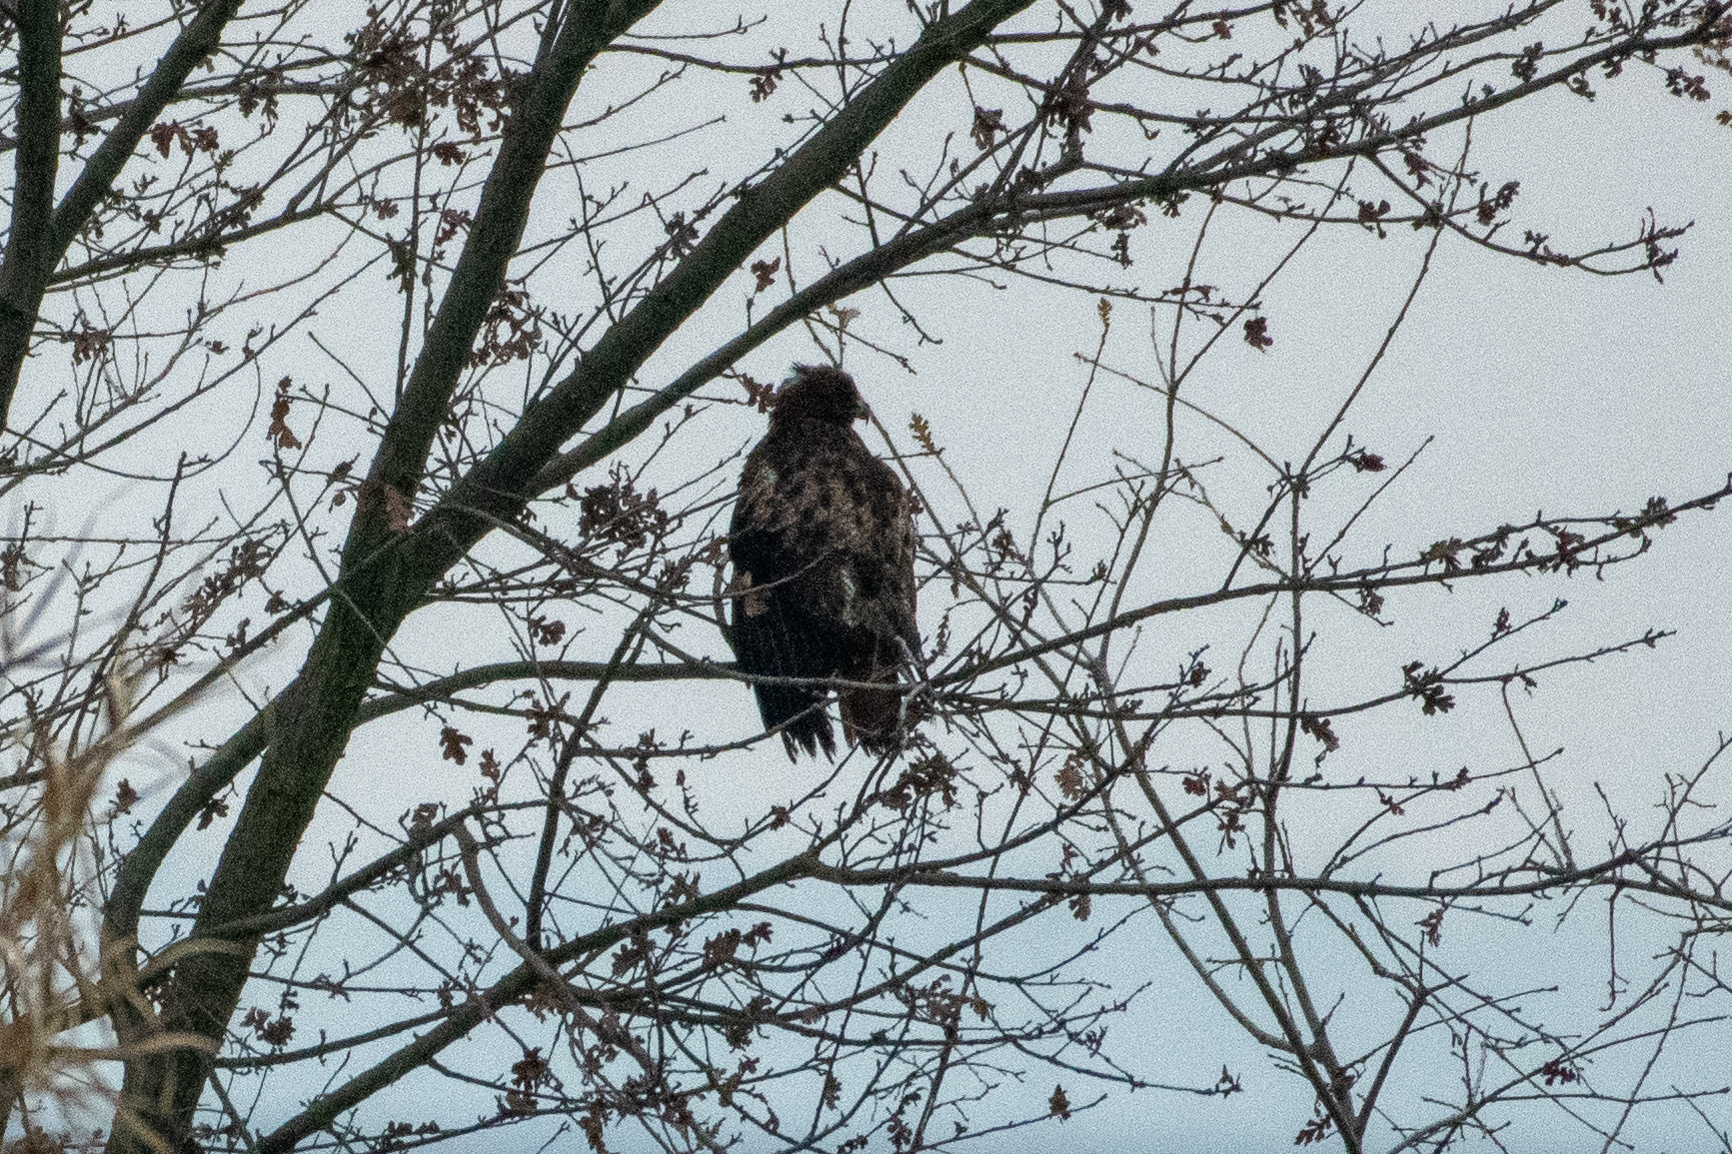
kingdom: Animalia
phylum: Chordata
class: Aves
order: Accipitriformes
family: Accipitridae
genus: Buteo
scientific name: Buteo jamaicensis
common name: Red-tailed hawk
